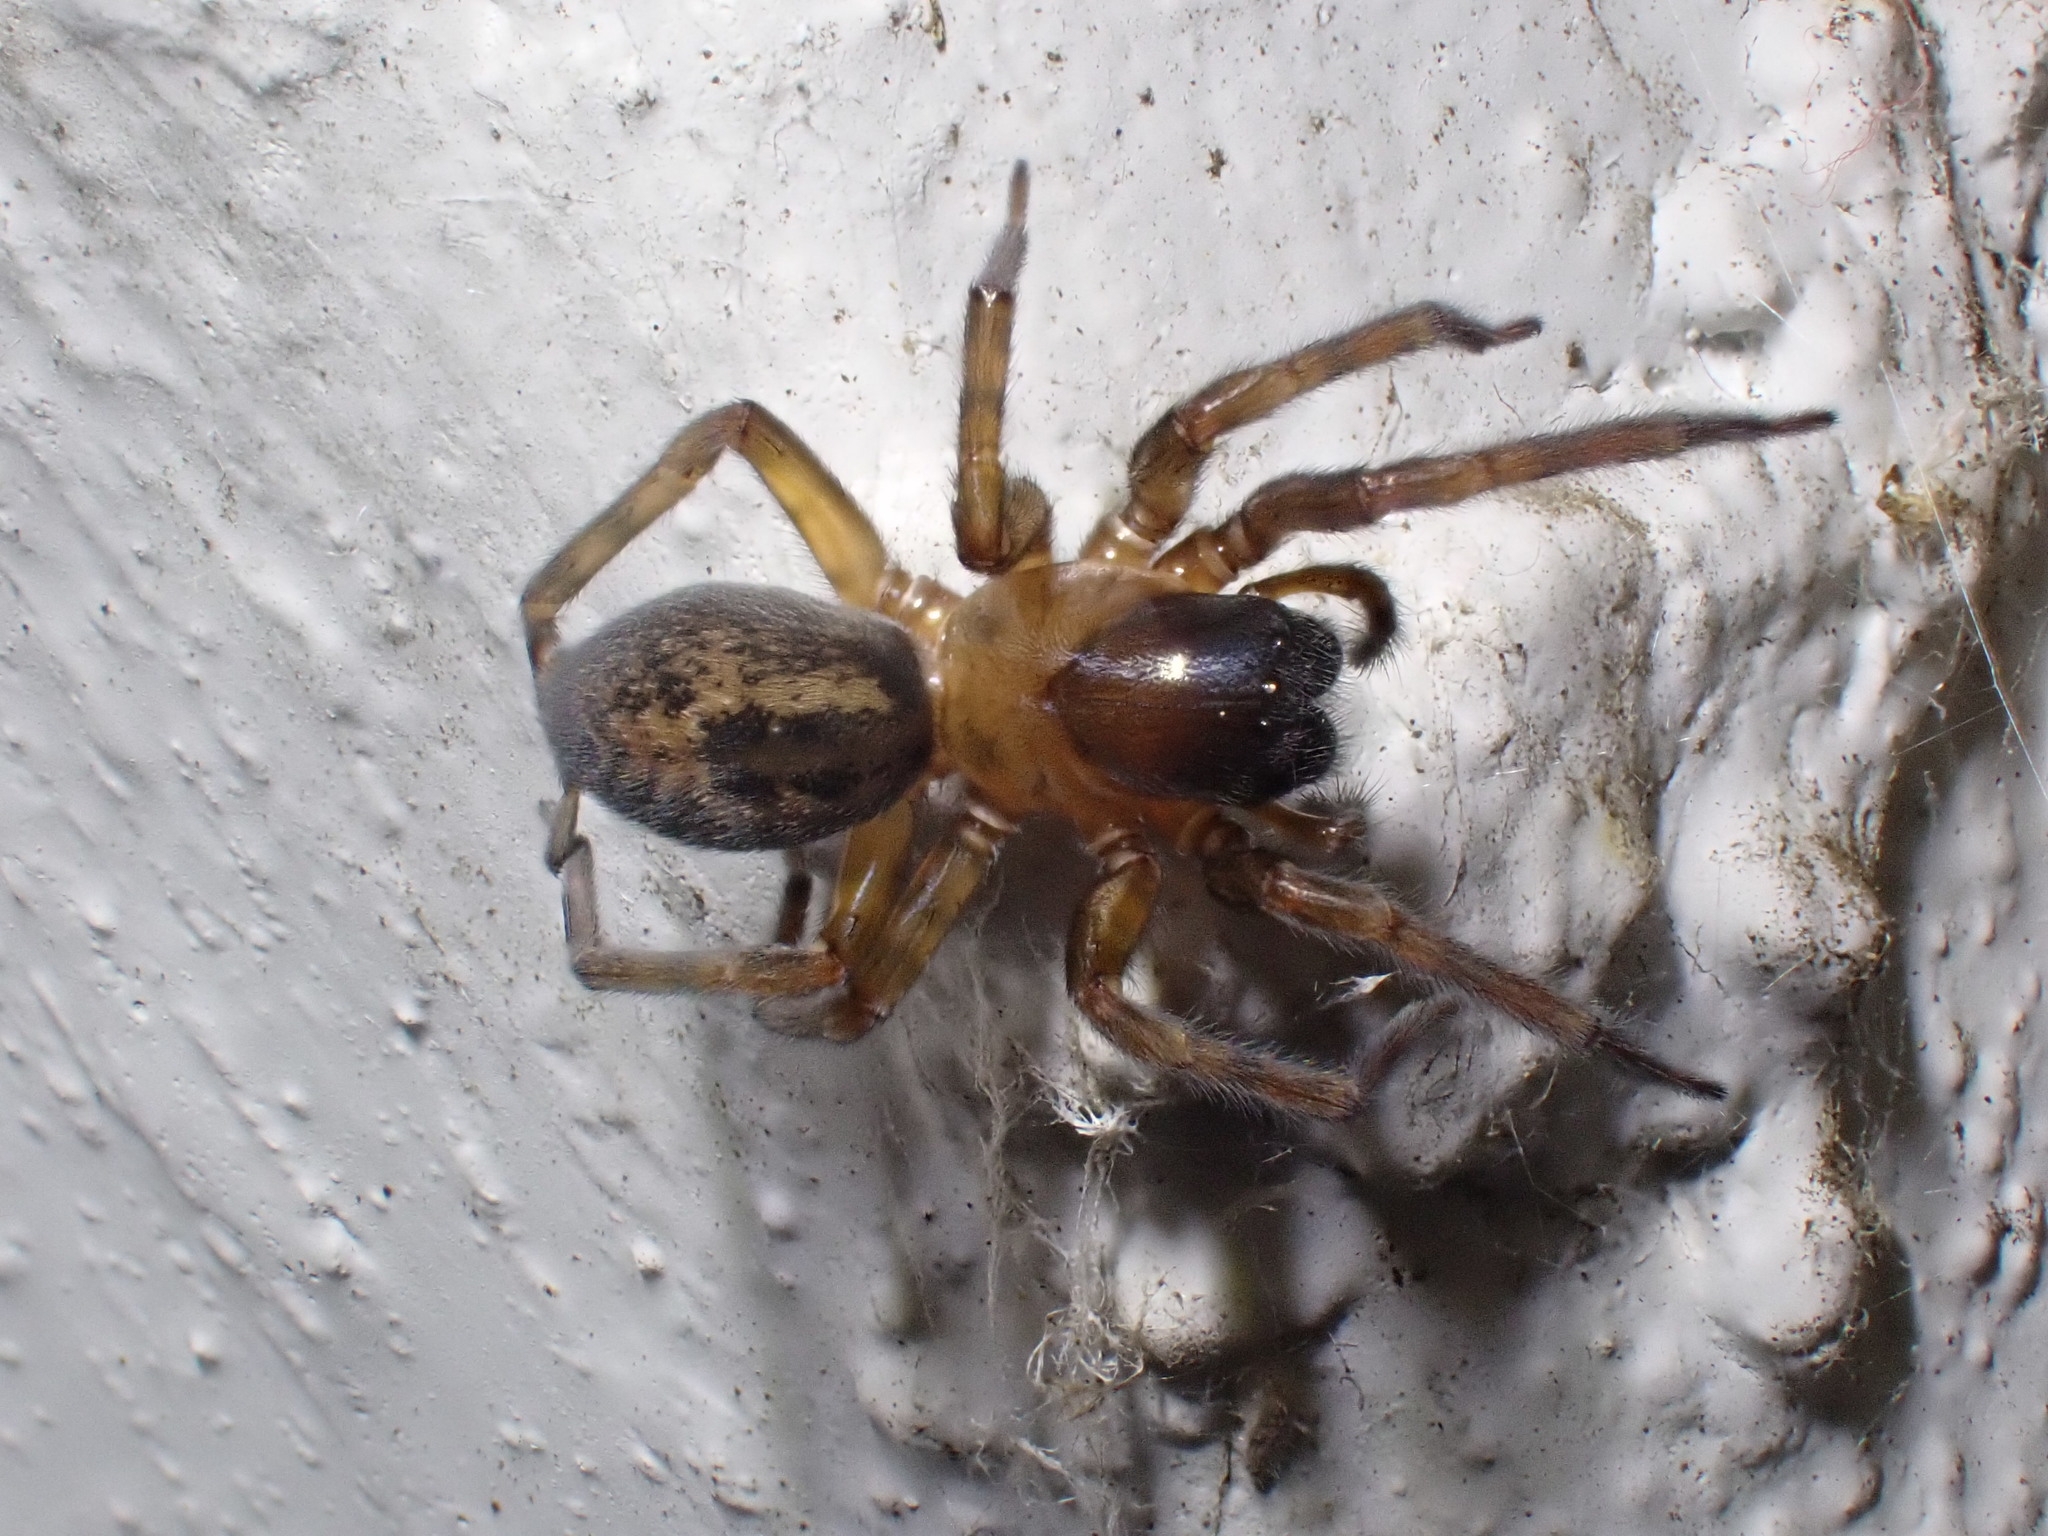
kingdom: Animalia
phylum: Arthropoda
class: Arachnida
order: Araneae
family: Amaurobiidae
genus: Amaurobius
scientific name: Amaurobius similis
